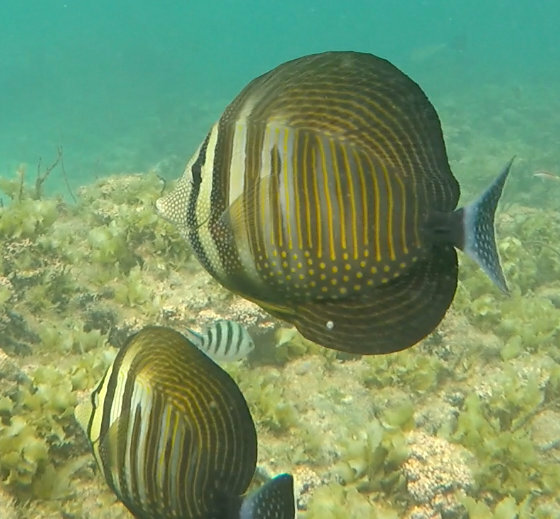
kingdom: Animalia
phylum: Chordata
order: Perciformes
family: Acanthuridae
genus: Zebrasoma
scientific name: Zebrasoma desjardinii
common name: Desjardin's sailfin tang
